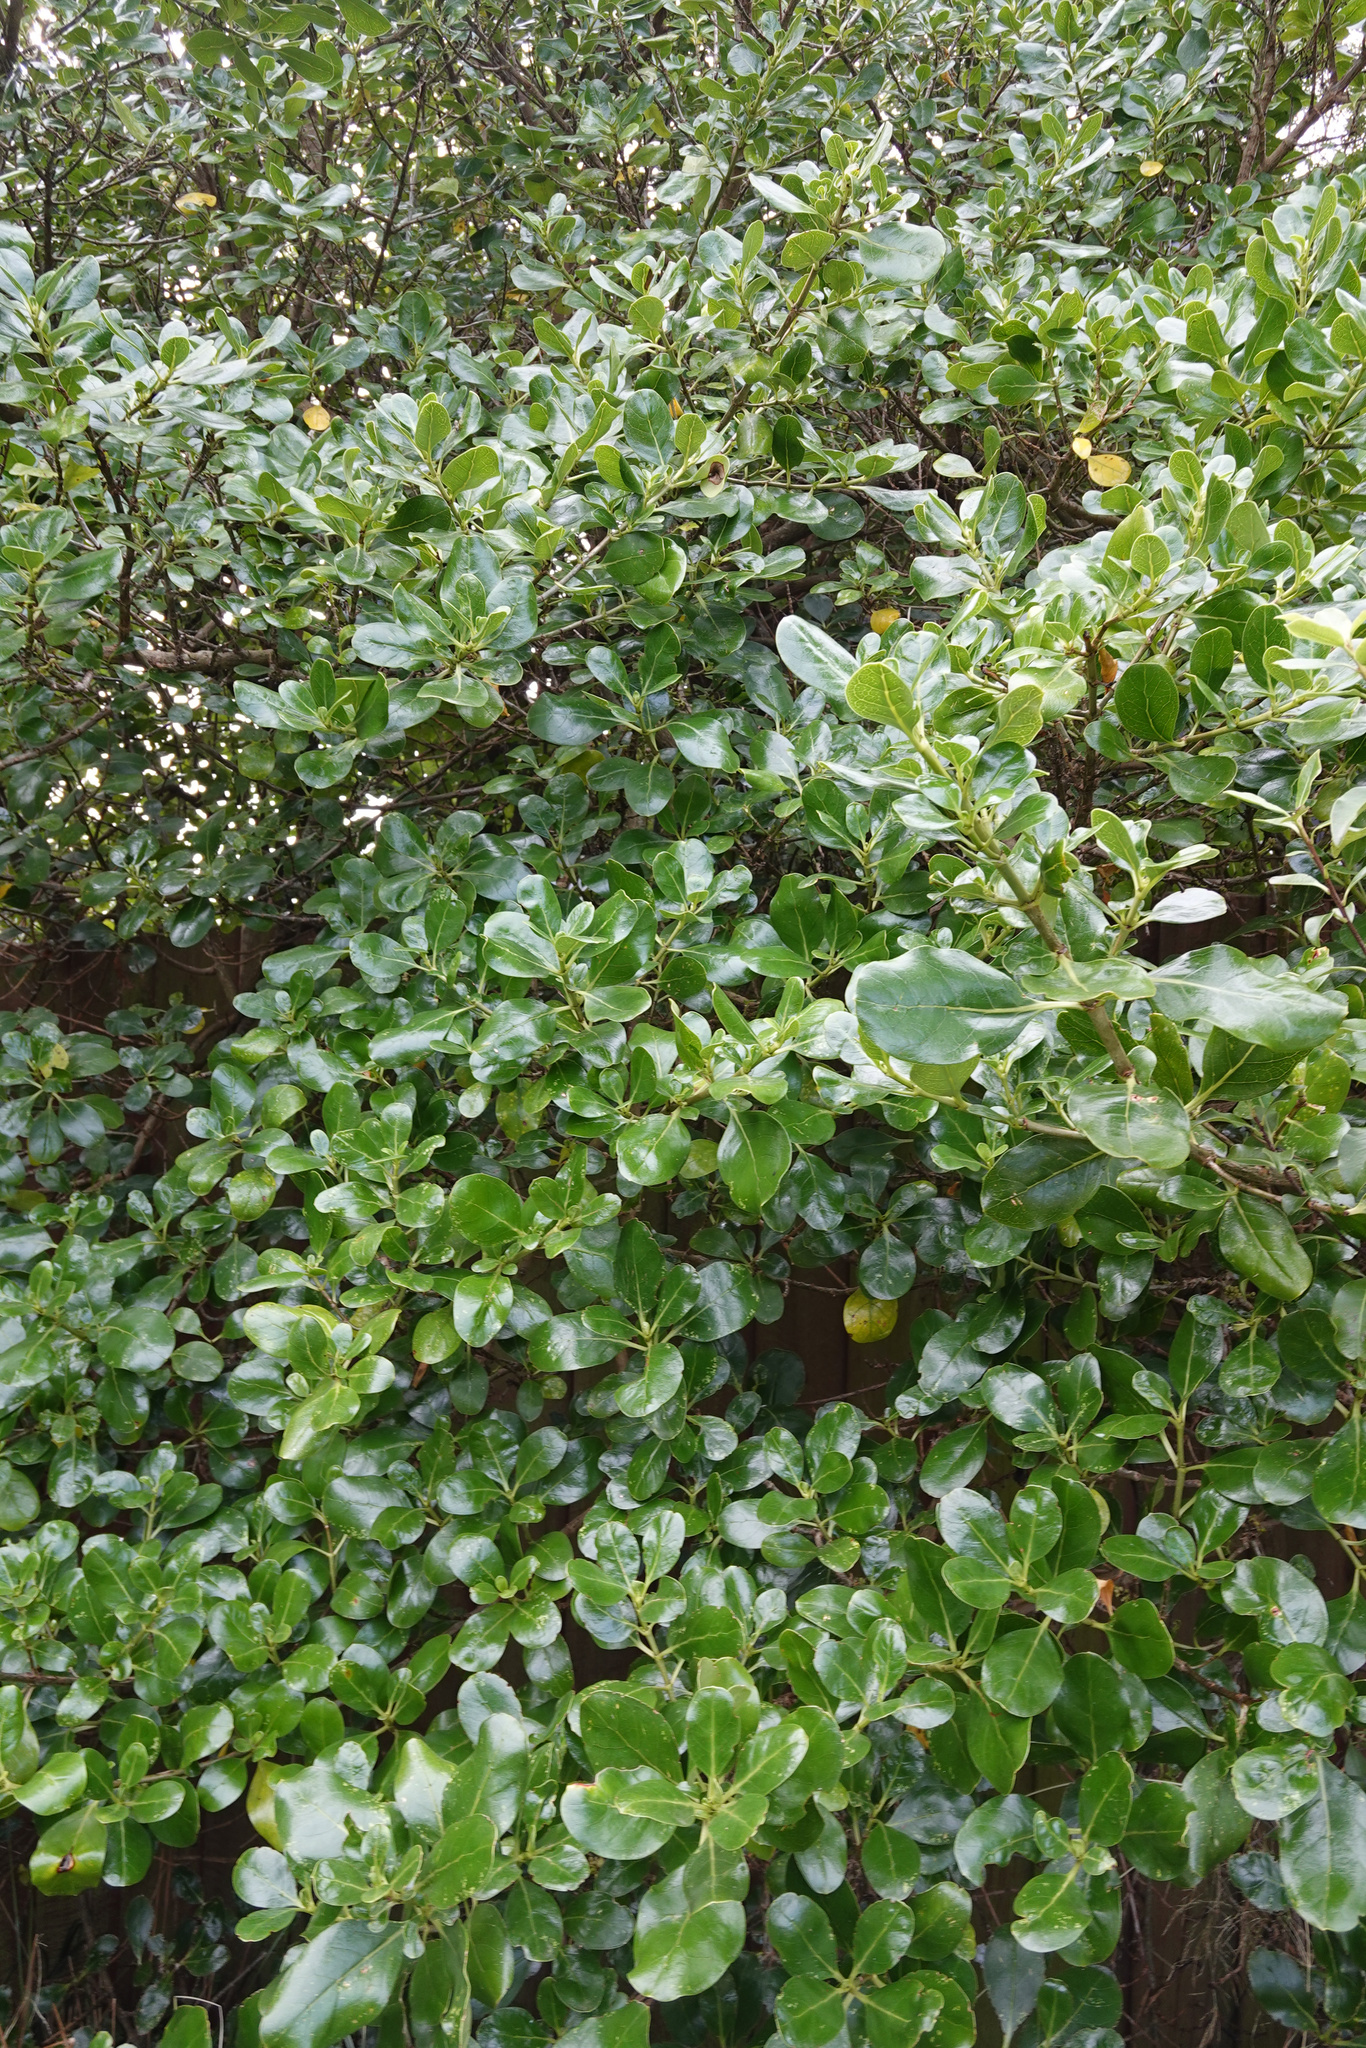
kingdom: Plantae
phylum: Tracheophyta
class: Magnoliopsida
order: Gentianales
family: Rubiaceae
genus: Coprosma
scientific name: Coprosma repens
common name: Tree bedstraw
